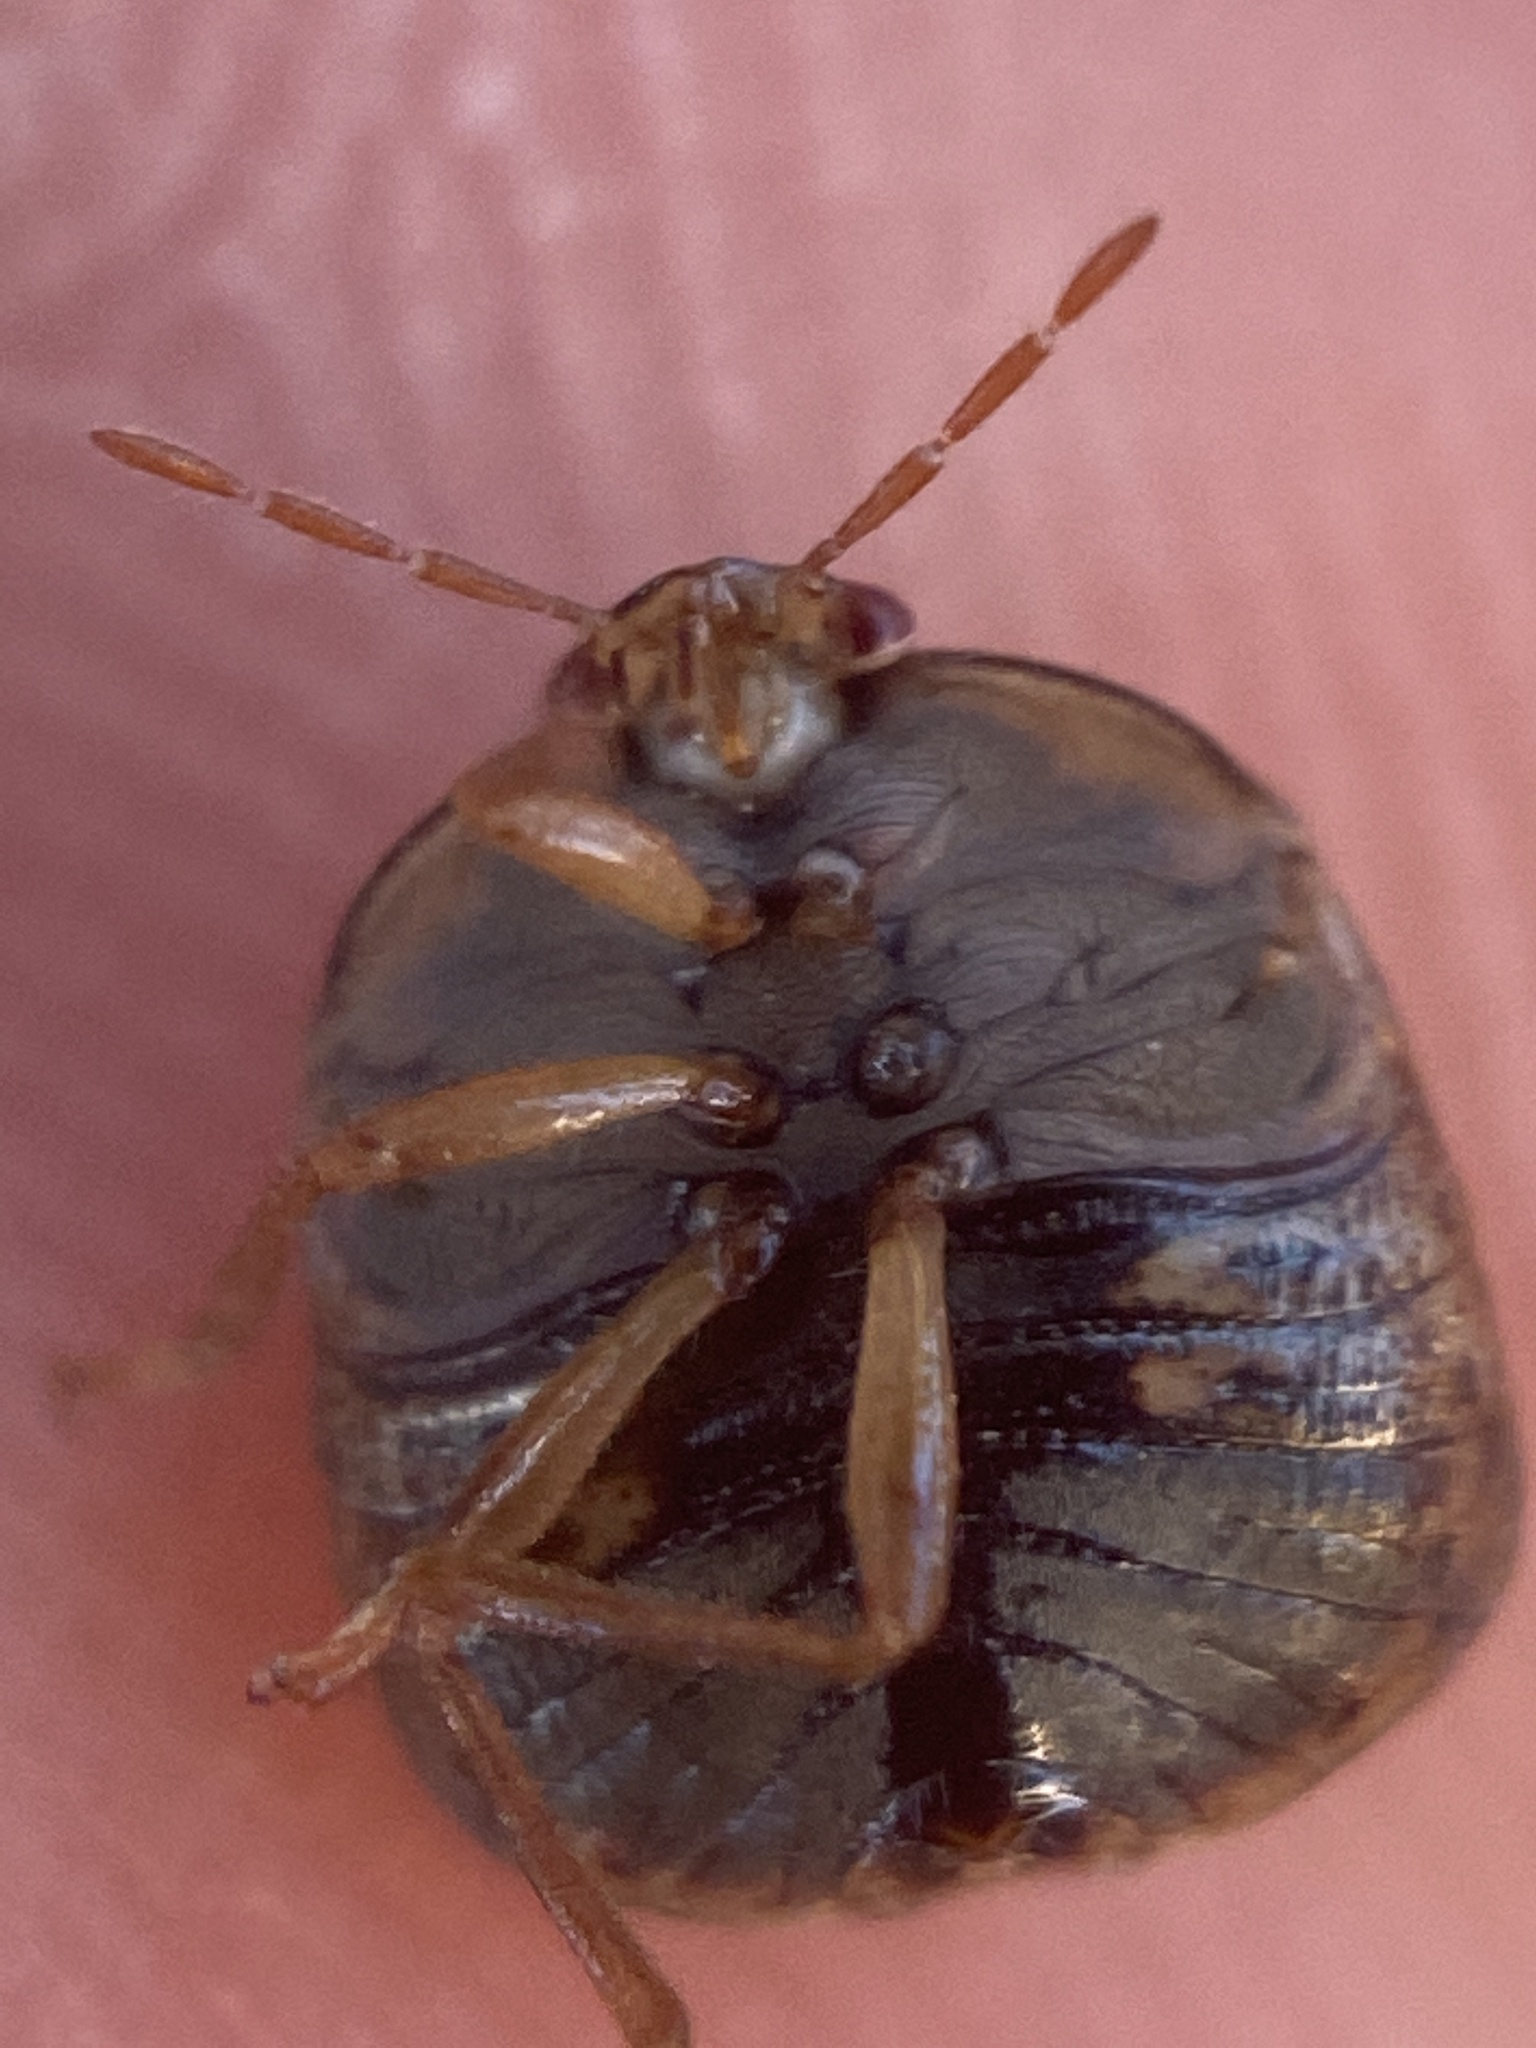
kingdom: Animalia
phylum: Arthropoda
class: Insecta
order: Hemiptera
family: Plataspidae
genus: Megacopta
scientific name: Megacopta cribraria
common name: Bean plataspid
